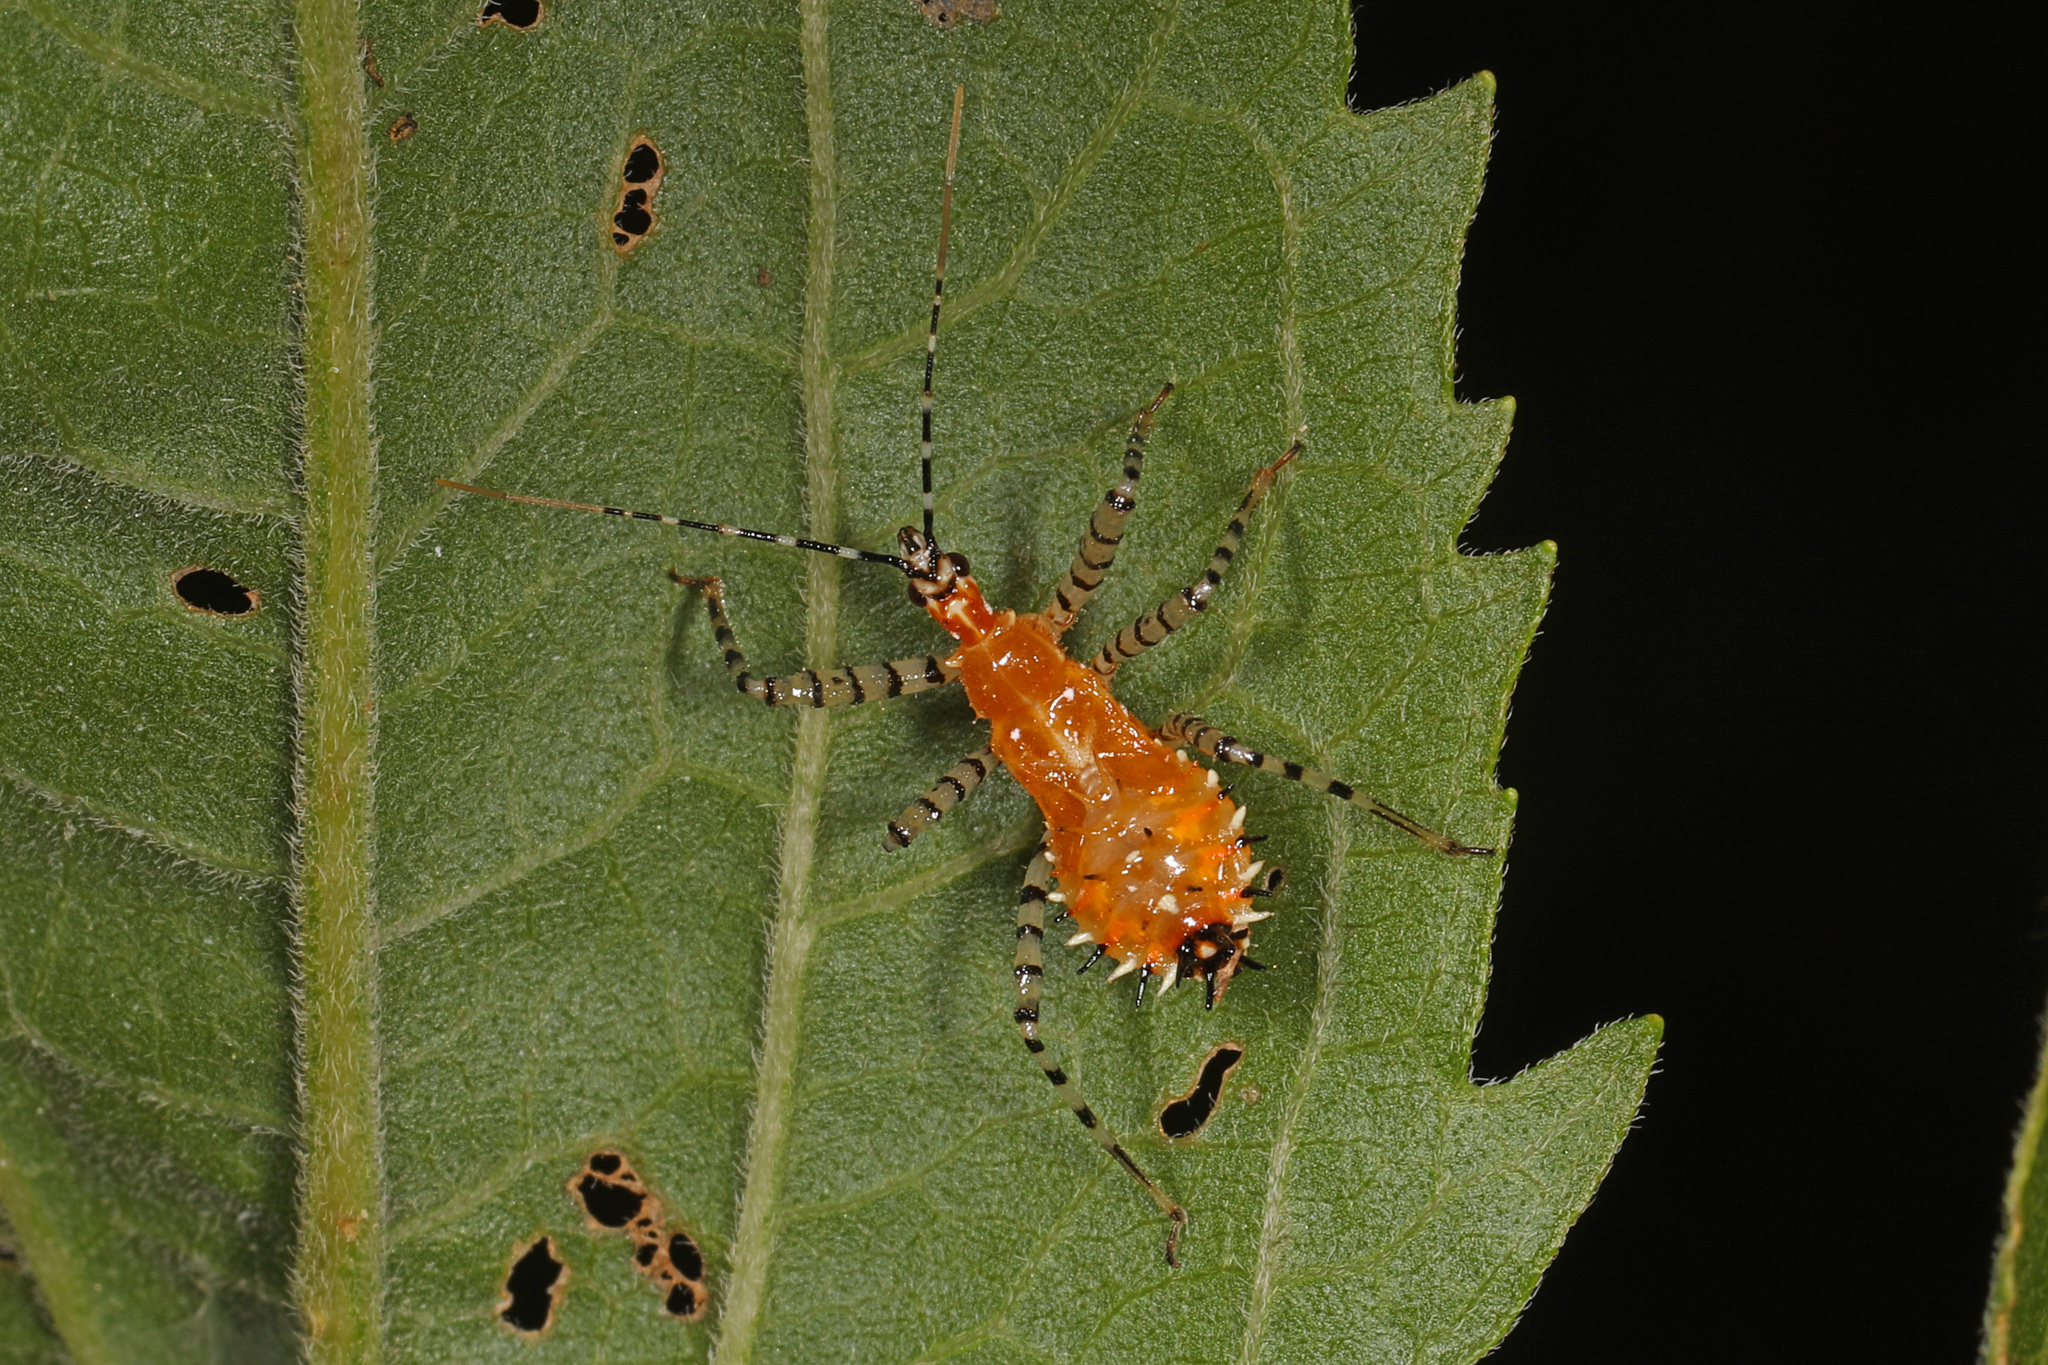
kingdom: Animalia
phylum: Arthropoda
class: Insecta
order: Hemiptera
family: Reduviidae
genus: Pselliopus
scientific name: Pselliopus cinctus
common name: Ringed assassin bug
